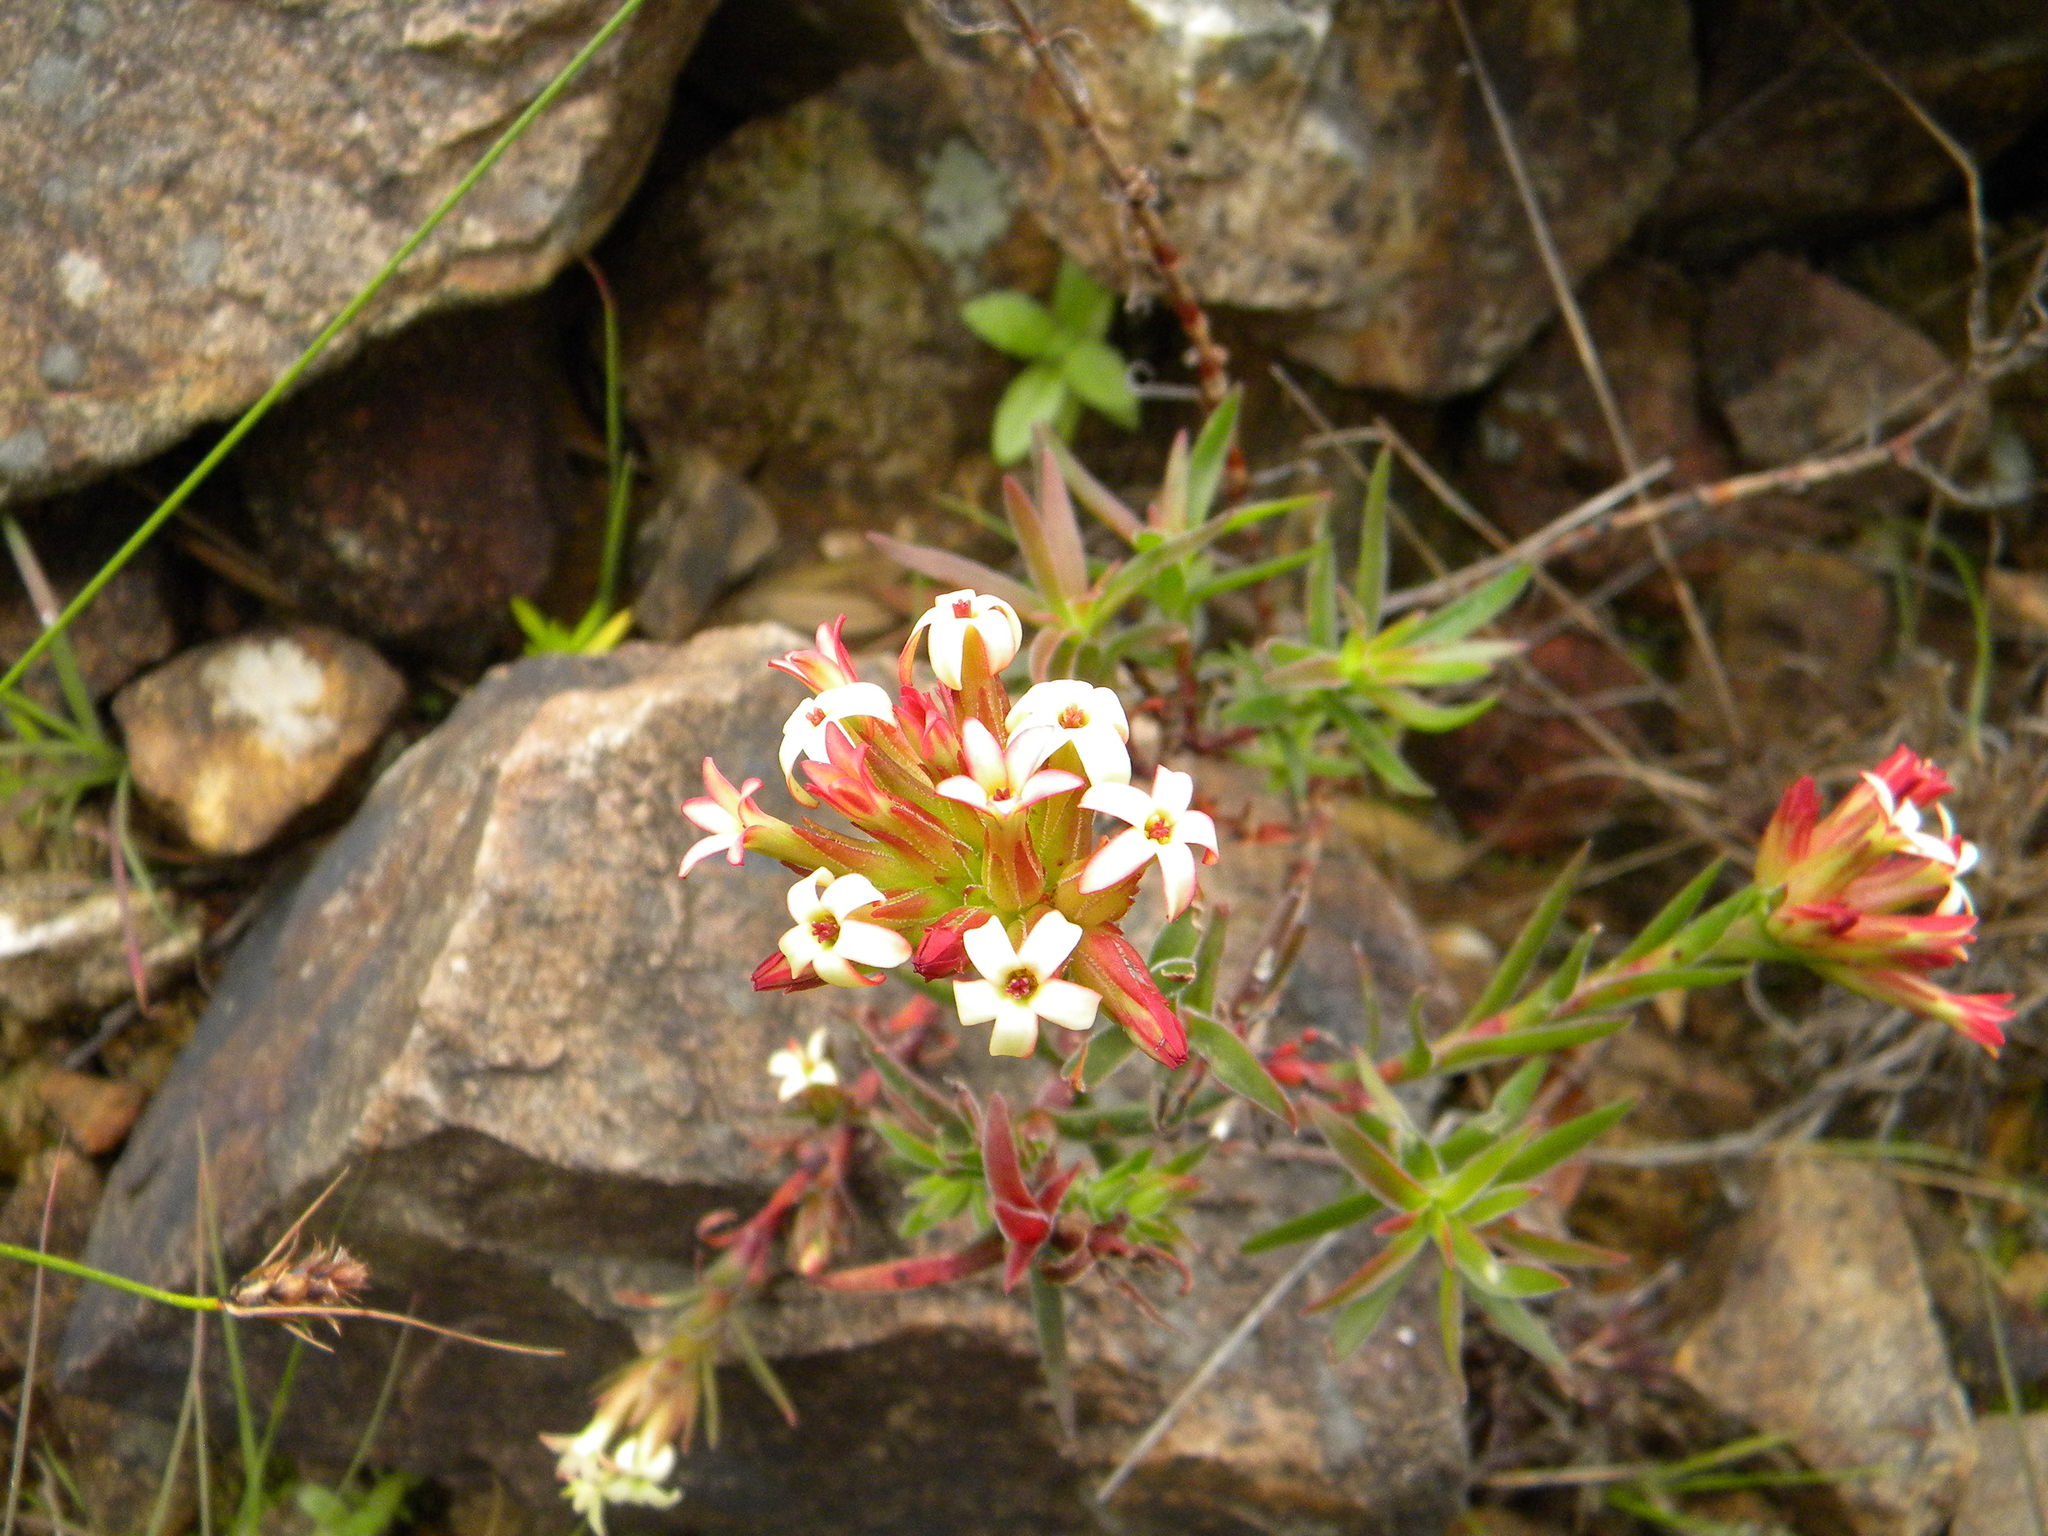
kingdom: Plantae
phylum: Tracheophyta
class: Magnoliopsida
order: Saxifragales
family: Crassulaceae
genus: Crassula
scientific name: Crassula fascicularis
